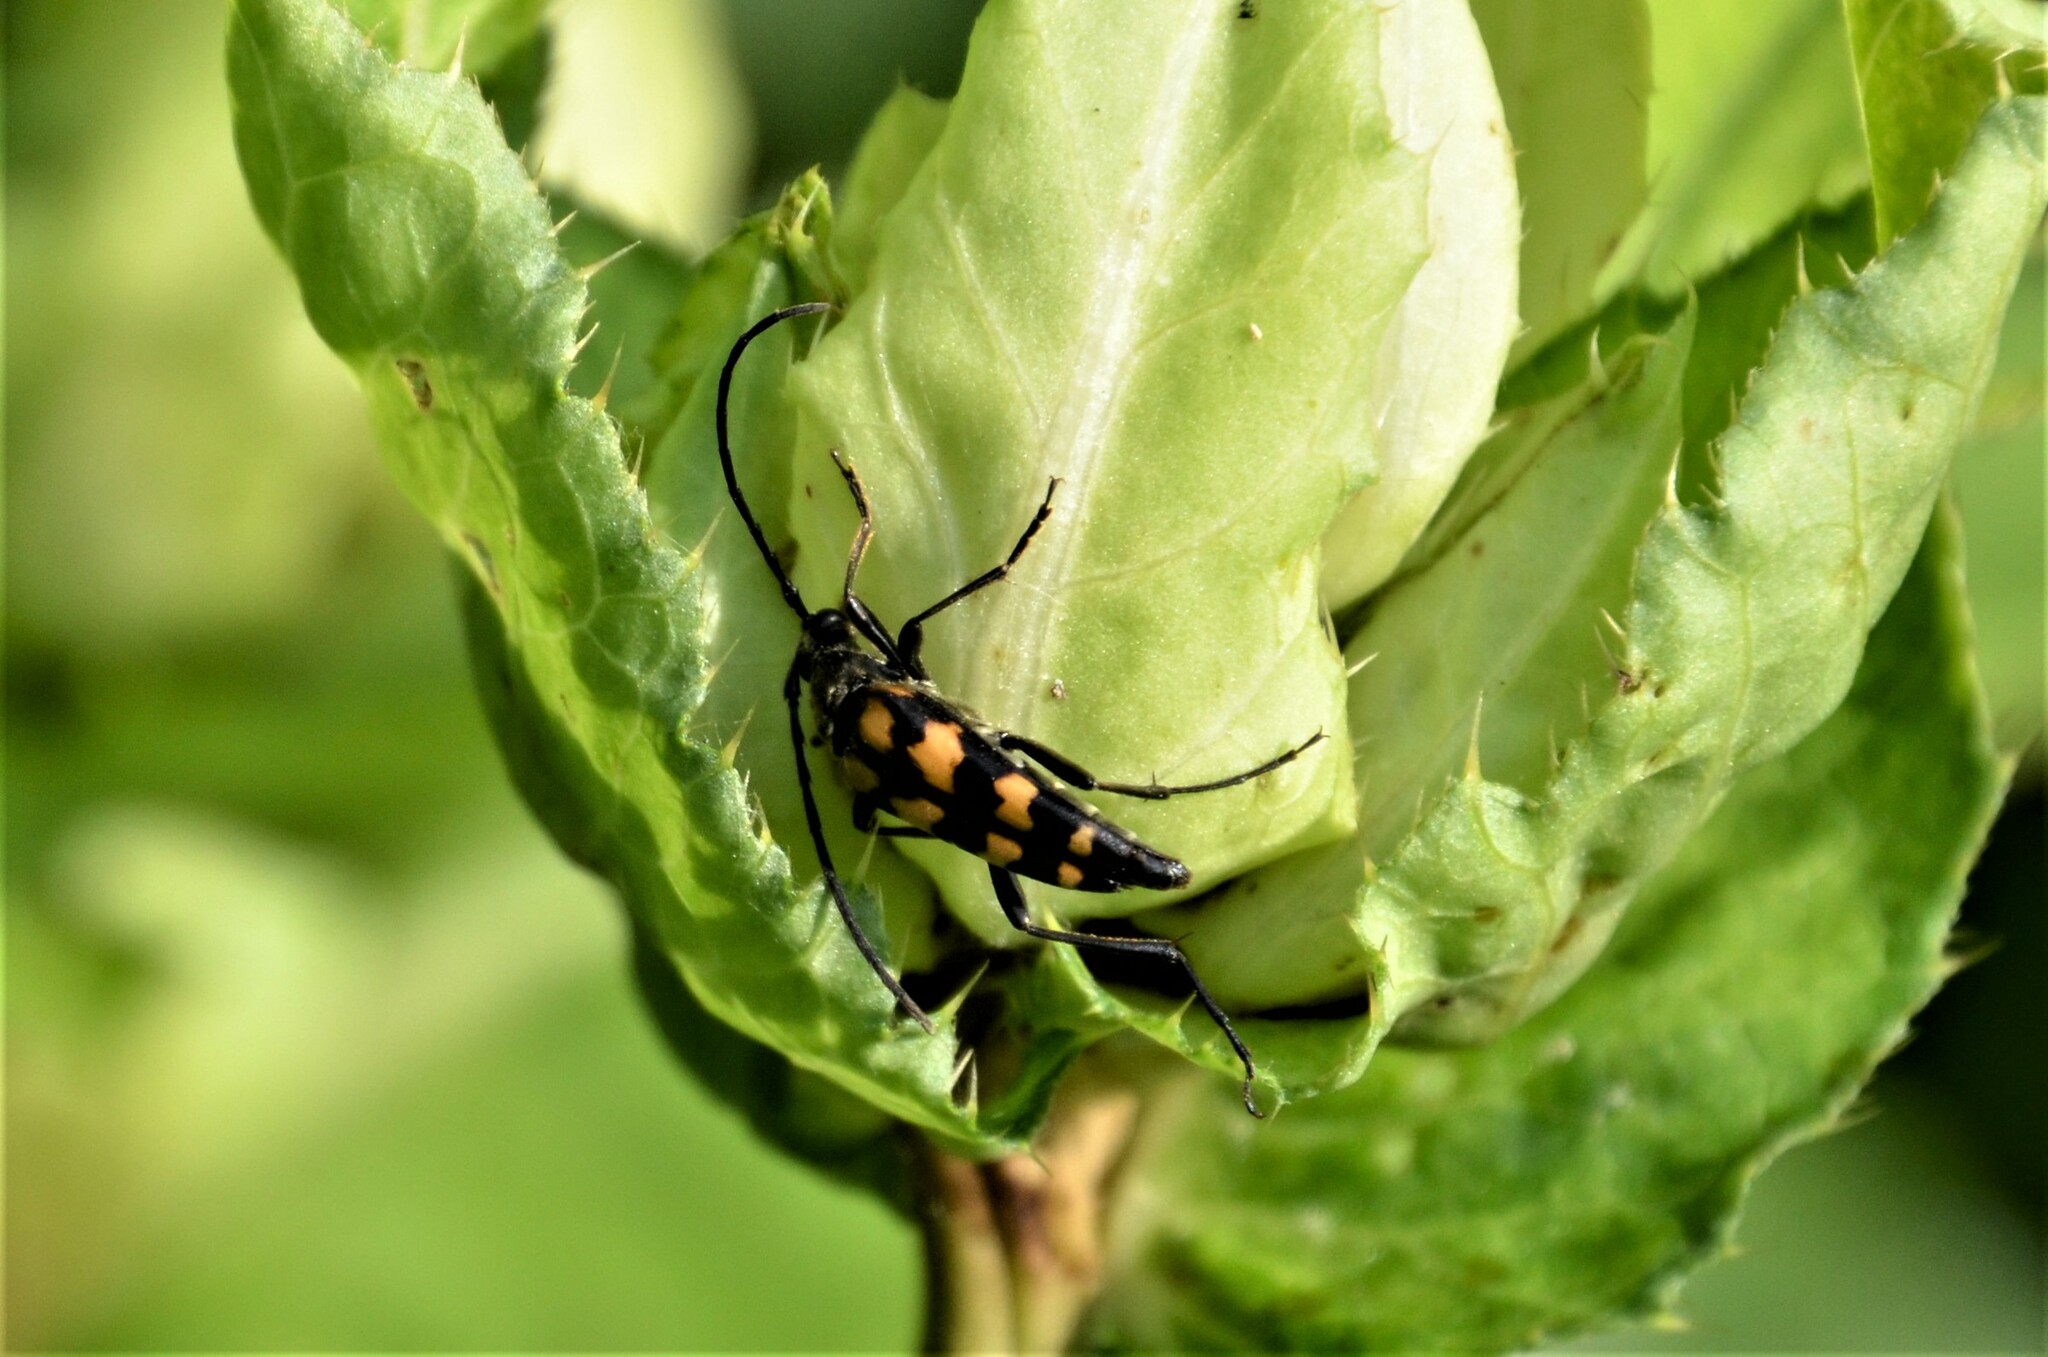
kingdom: Animalia
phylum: Arthropoda
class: Insecta
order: Coleoptera
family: Cerambycidae
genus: Leptura
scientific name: Leptura quadrifasciata
